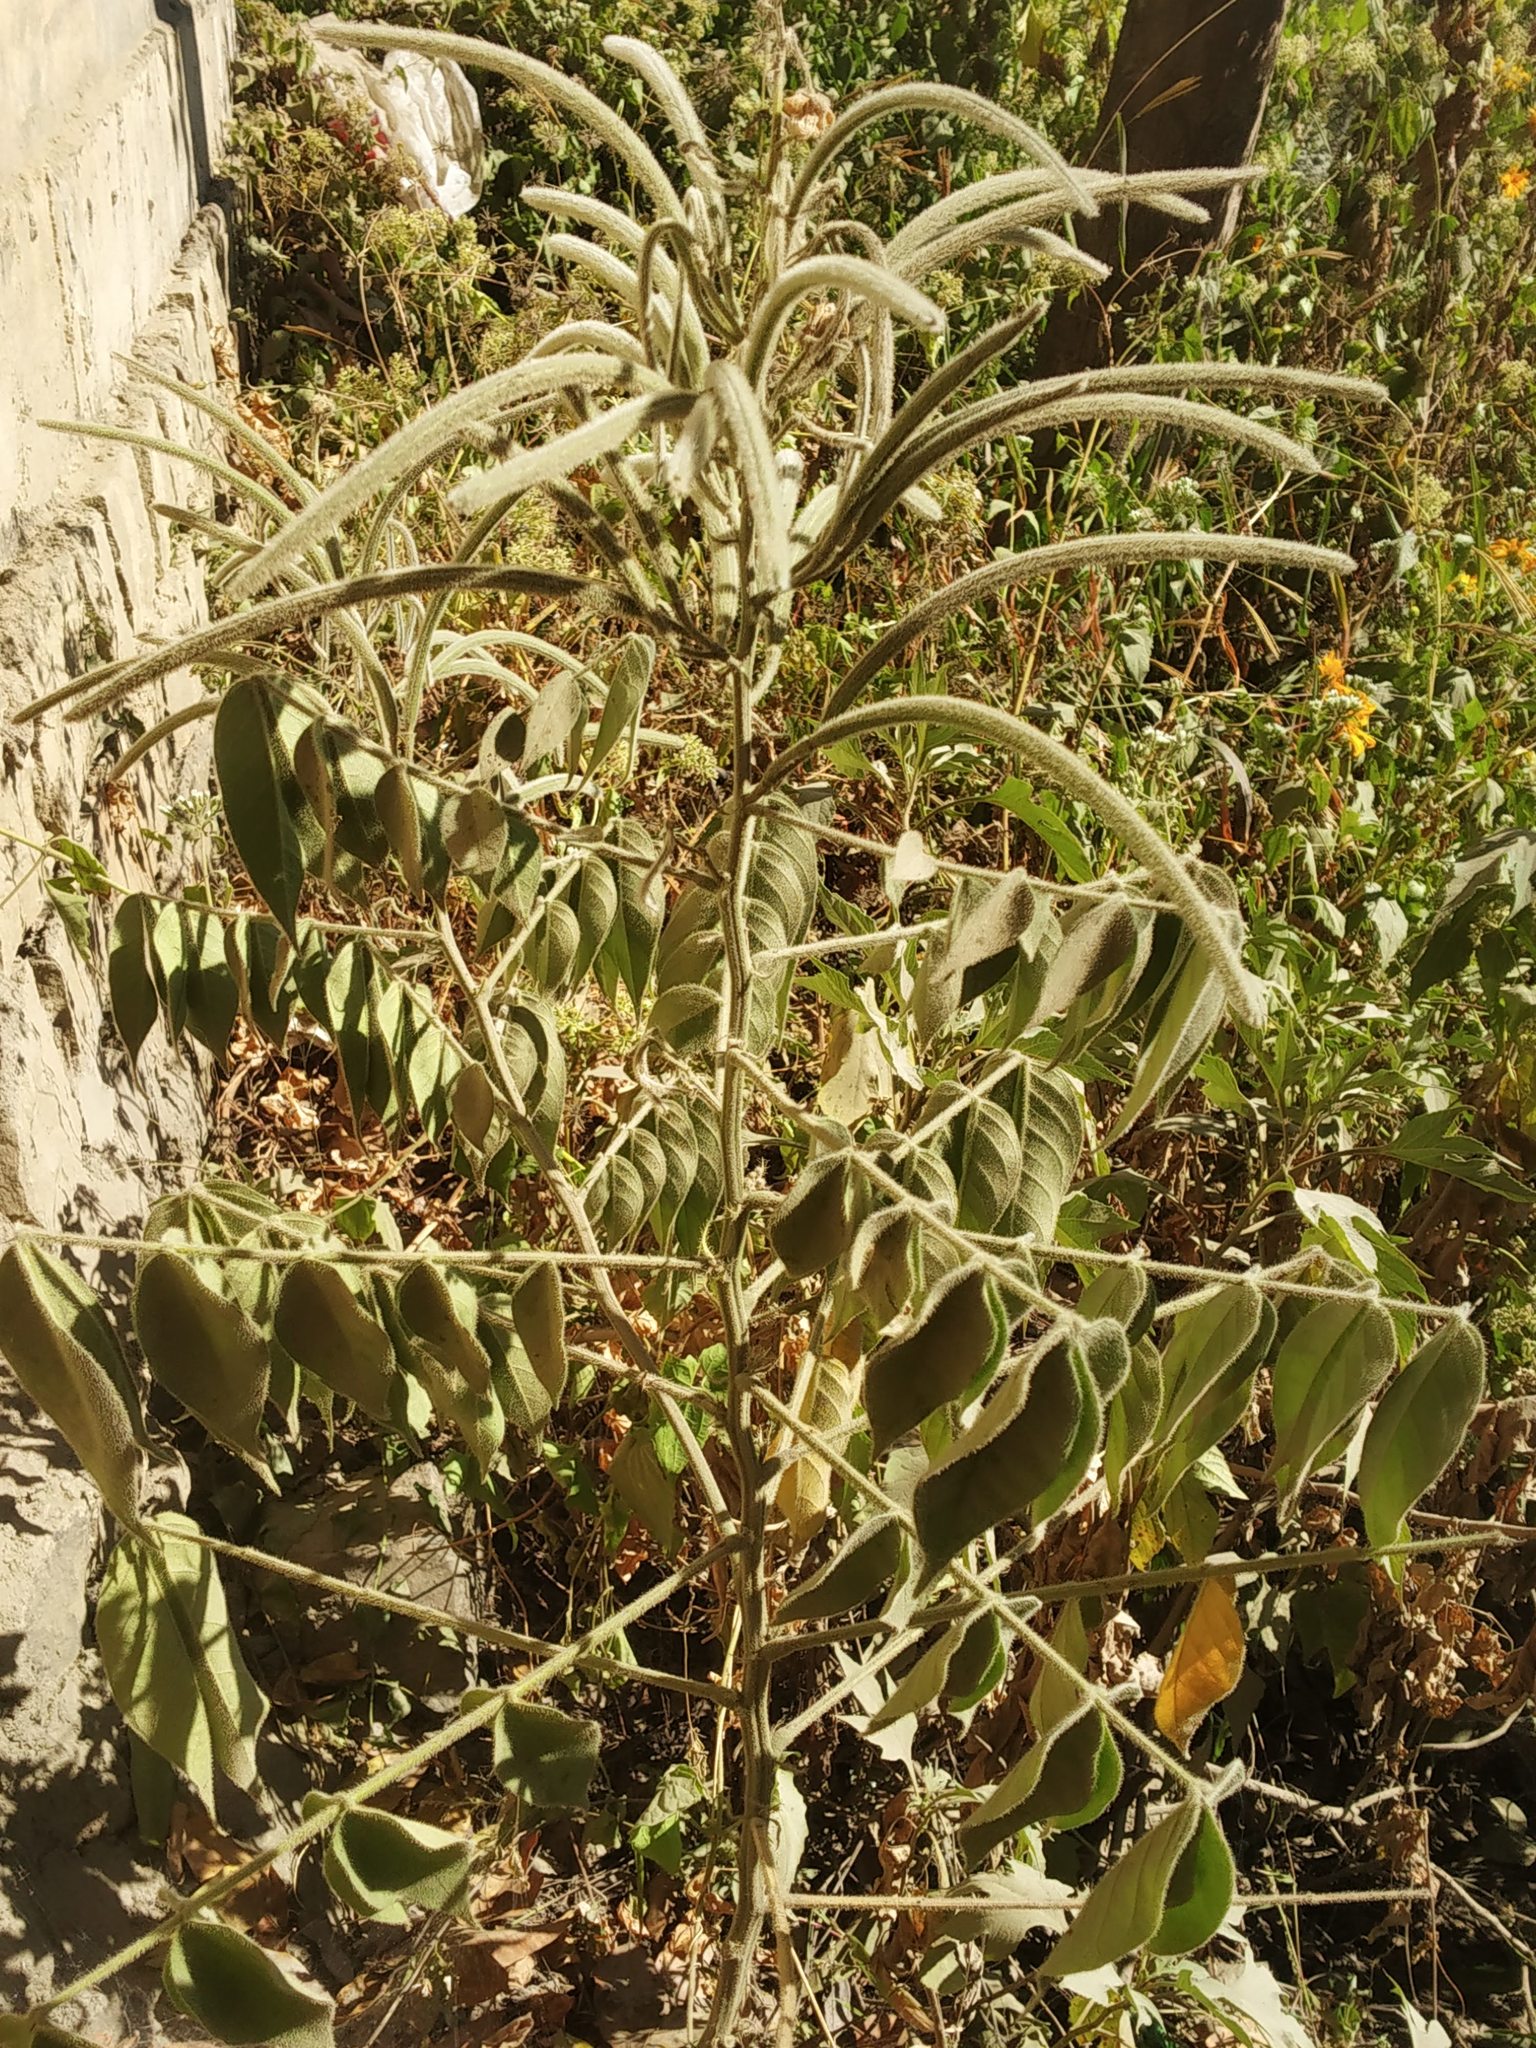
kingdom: Plantae
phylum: Tracheophyta
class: Magnoliopsida
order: Fabales
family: Fabaceae
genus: Senna
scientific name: Senna hirsuta
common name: Woolly senna
